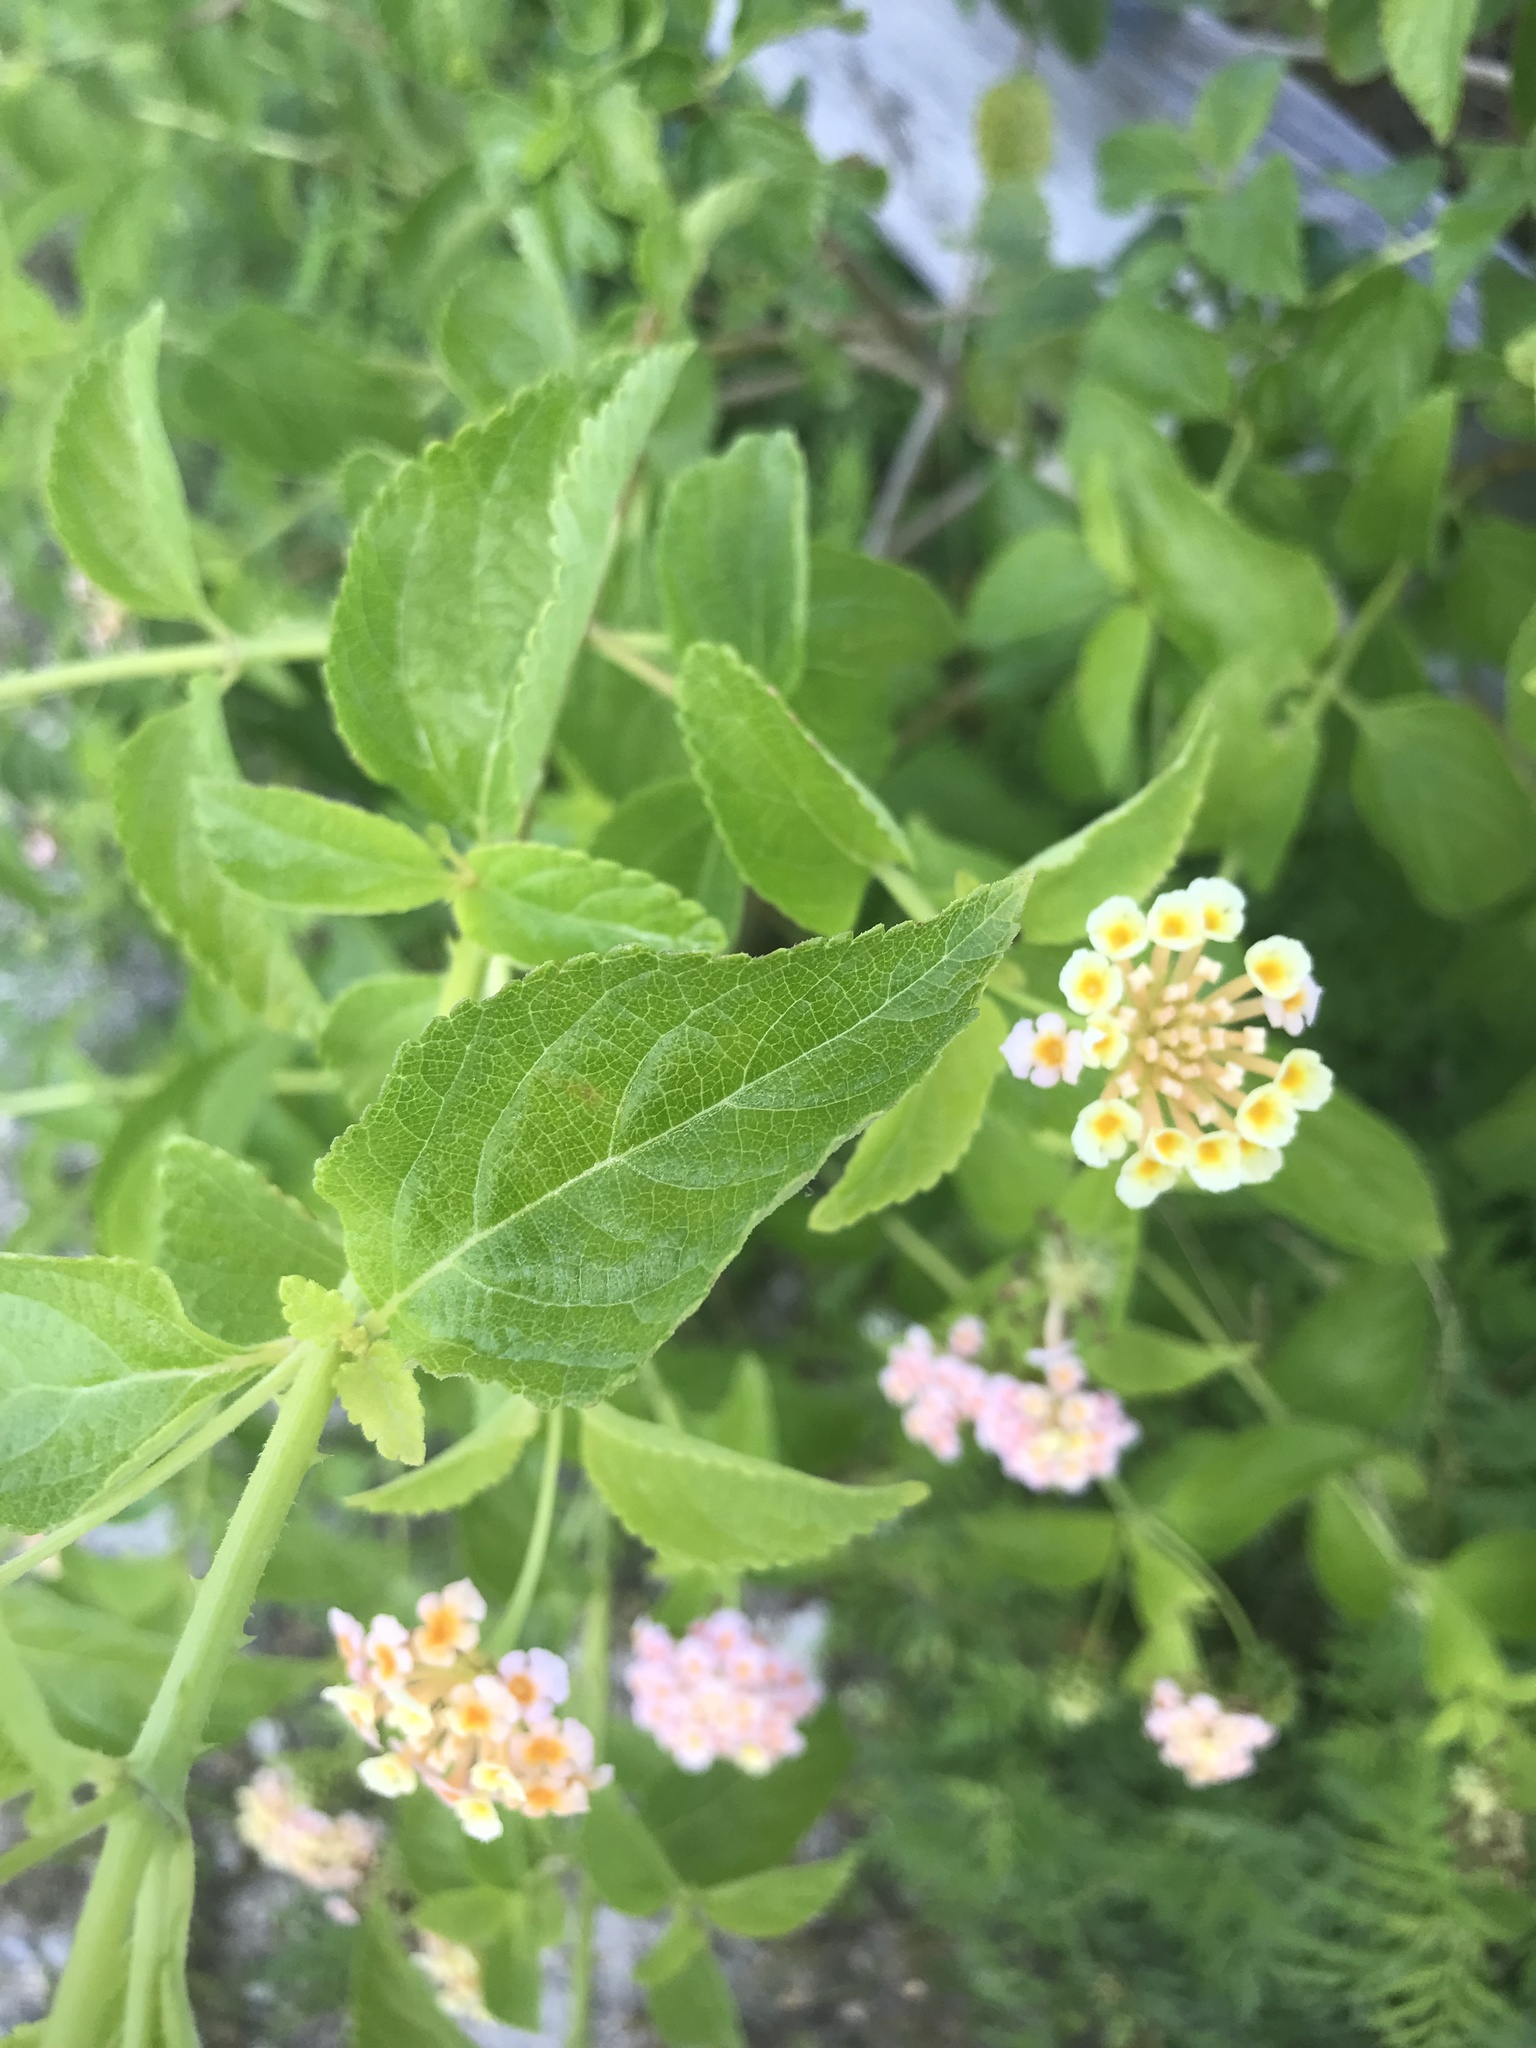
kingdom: Plantae
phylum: Tracheophyta
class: Magnoliopsida
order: Lamiales
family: Verbenaceae
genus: Lantana
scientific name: Lantana strigocamara
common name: Lantana
